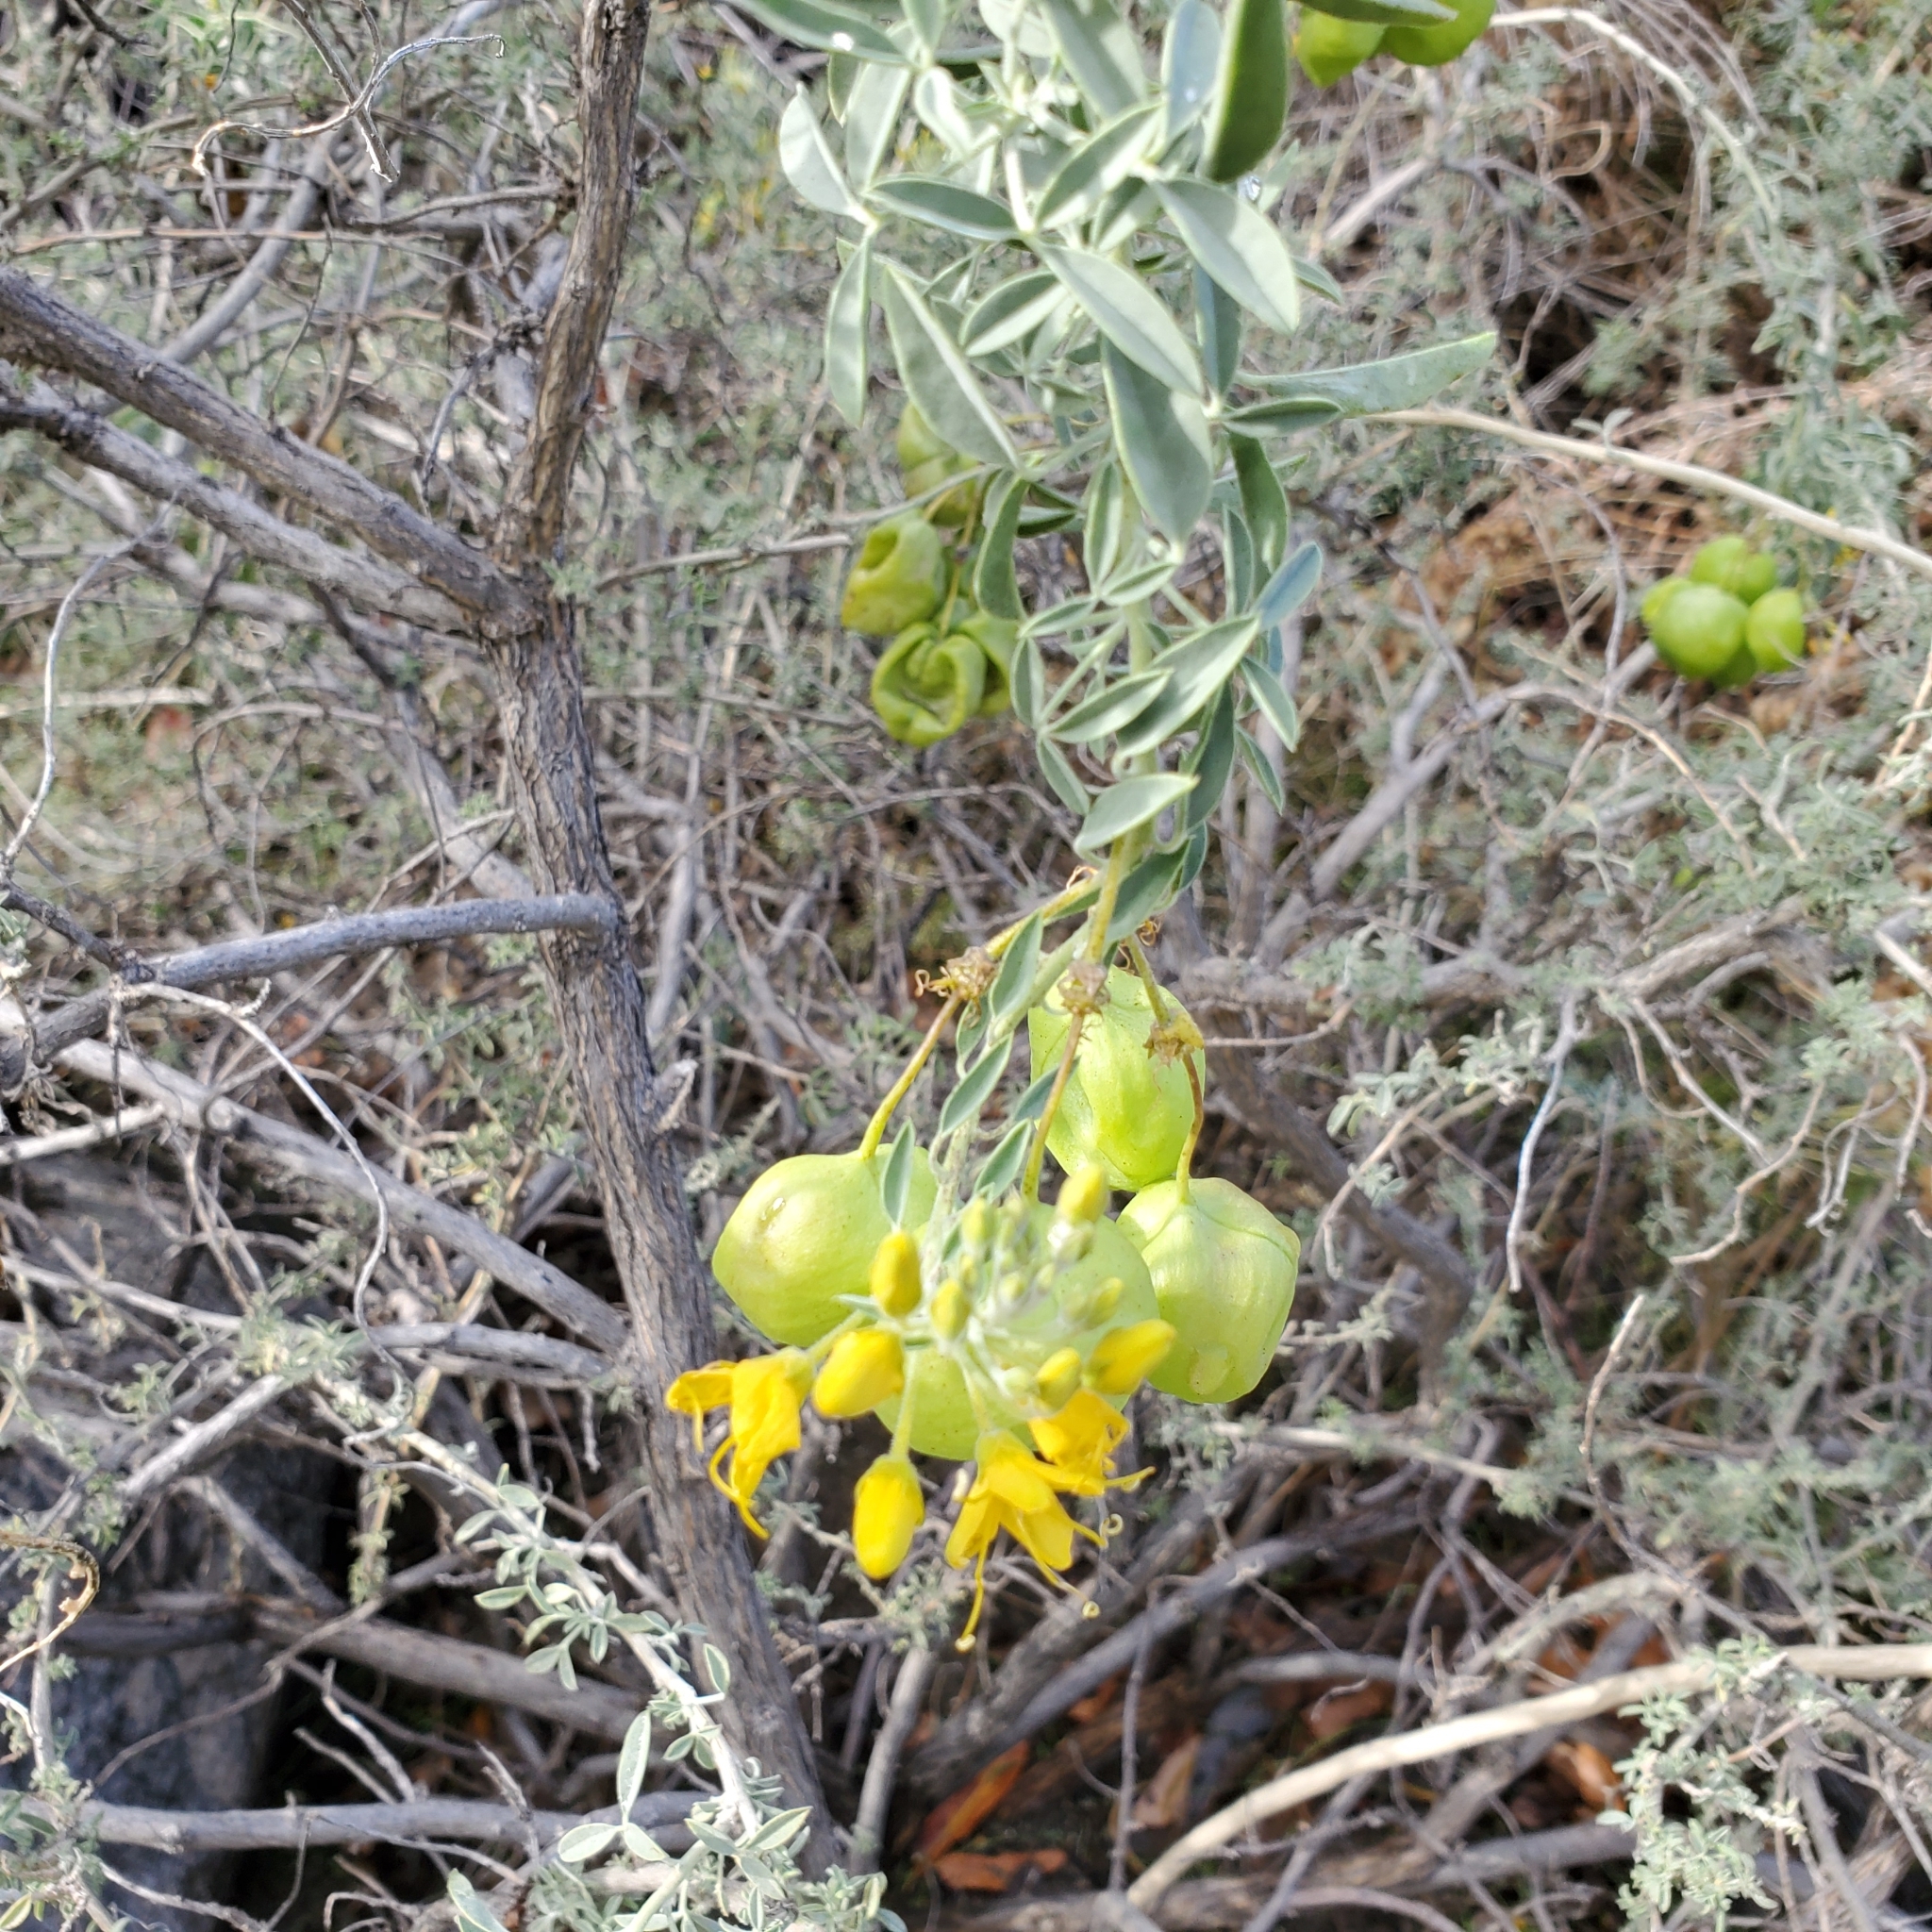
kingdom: Plantae
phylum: Tracheophyta
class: Magnoliopsida
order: Brassicales
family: Cleomaceae
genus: Cleomella
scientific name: Cleomella arborea
